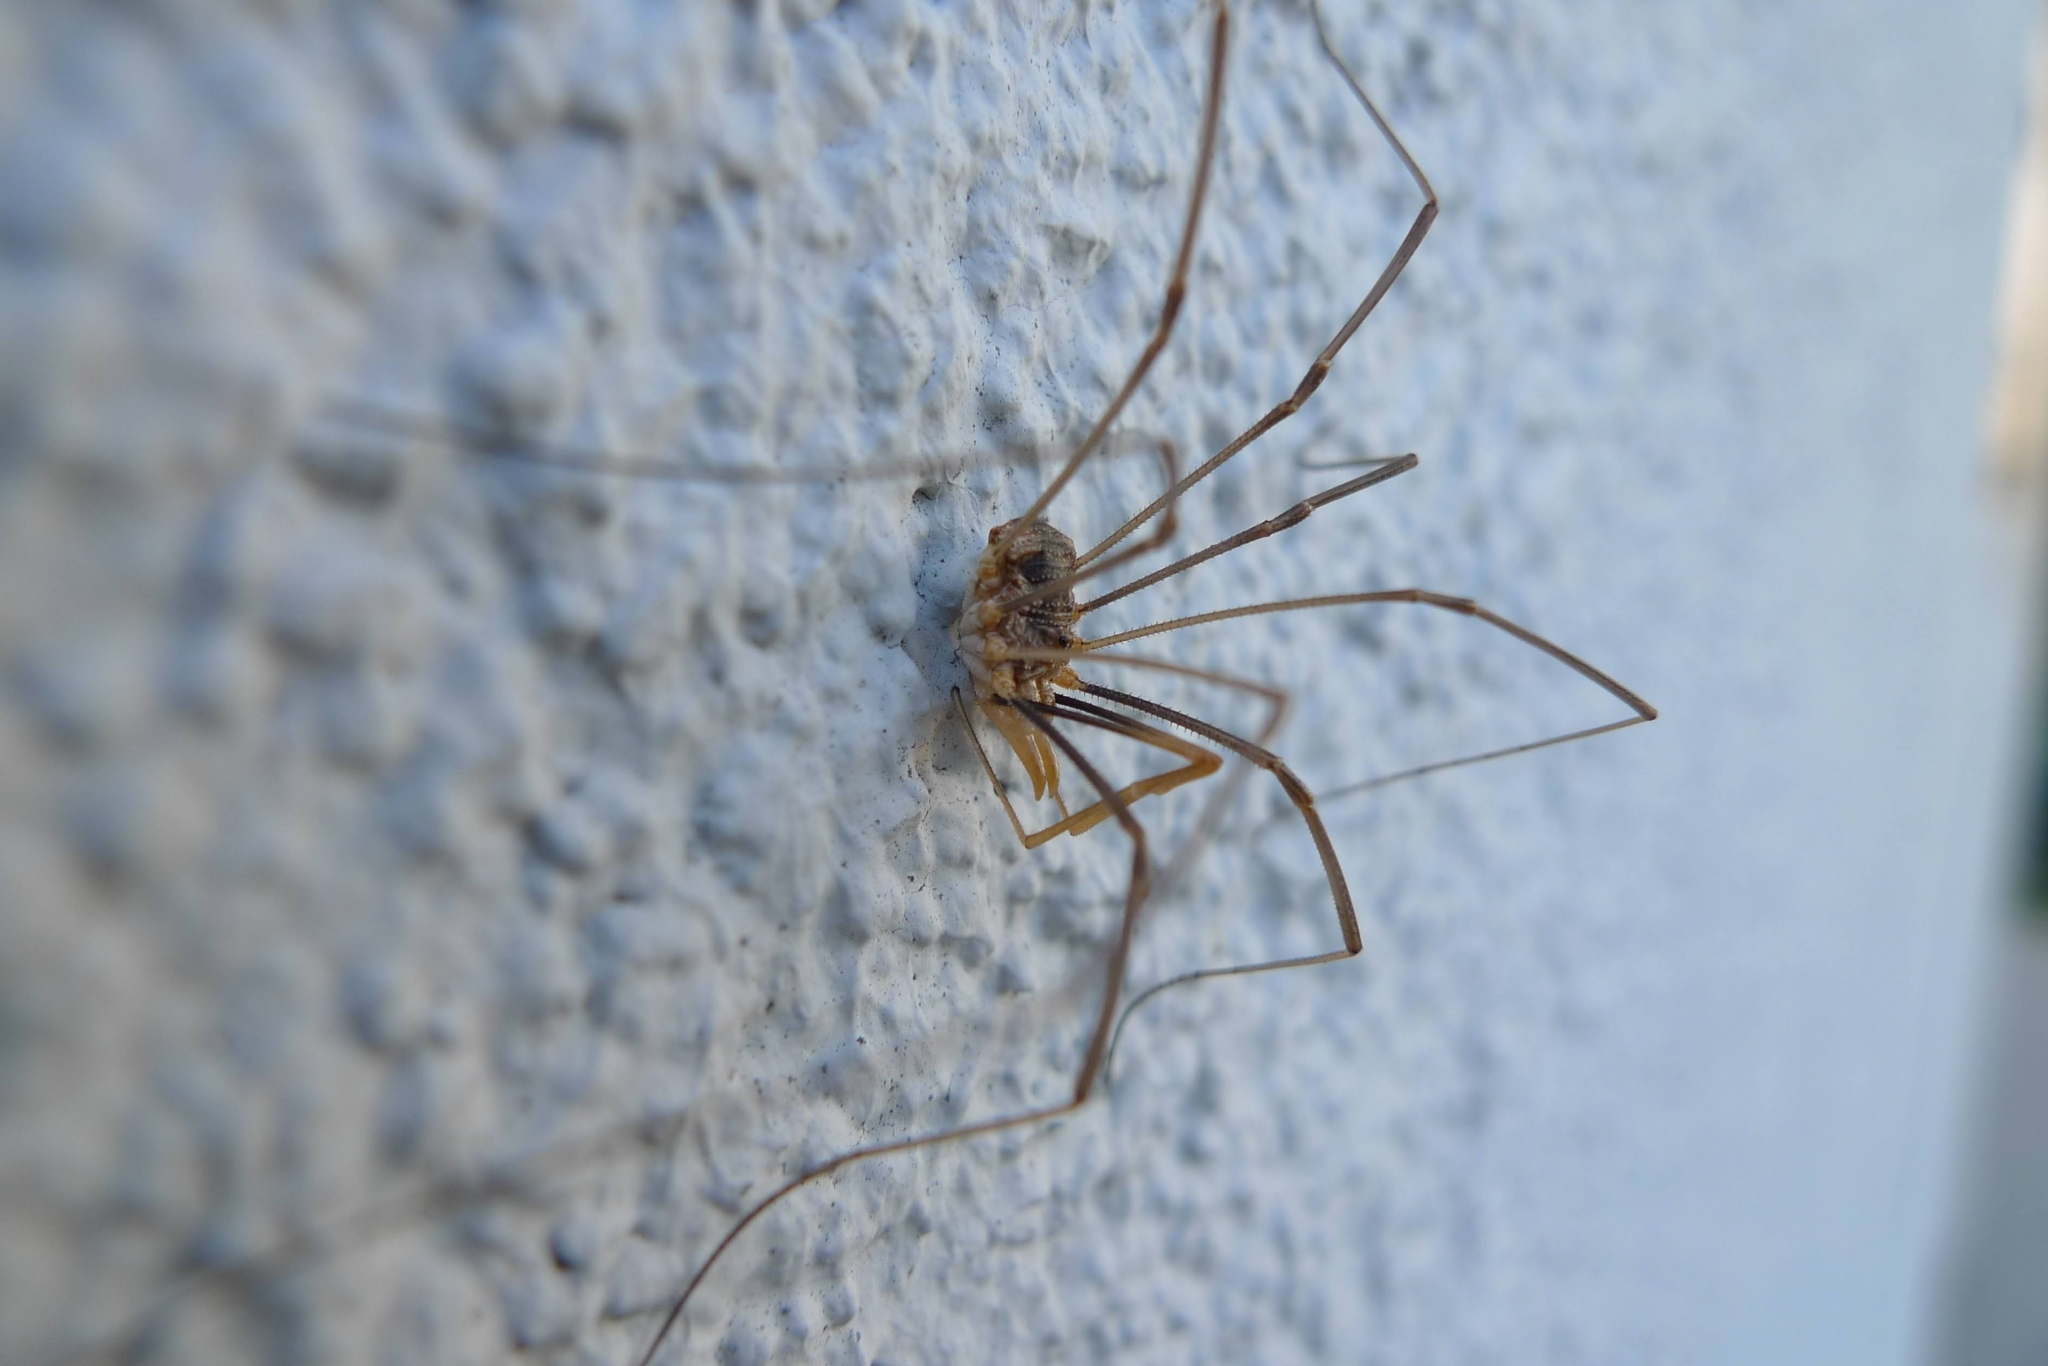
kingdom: Animalia
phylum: Arthropoda
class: Arachnida
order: Opiliones
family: Phalangiidae
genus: Phalangium
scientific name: Phalangium opilio
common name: Daddy longleg
